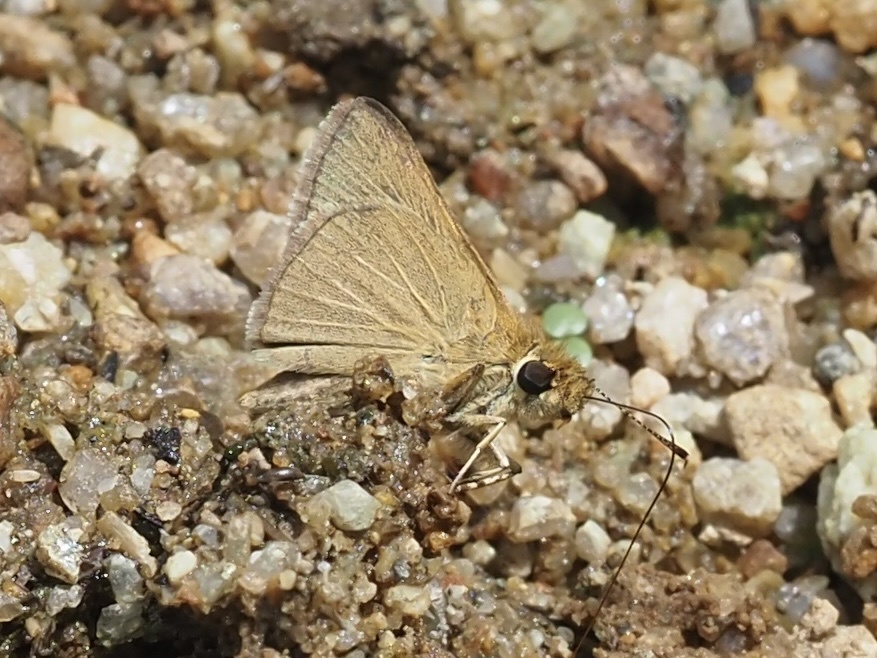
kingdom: Animalia
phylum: Arthropoda
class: Insecta
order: Lepidoptera
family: Hesperiidae
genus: Nastra
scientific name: Nastra lherminier
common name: Swarthy skipper
